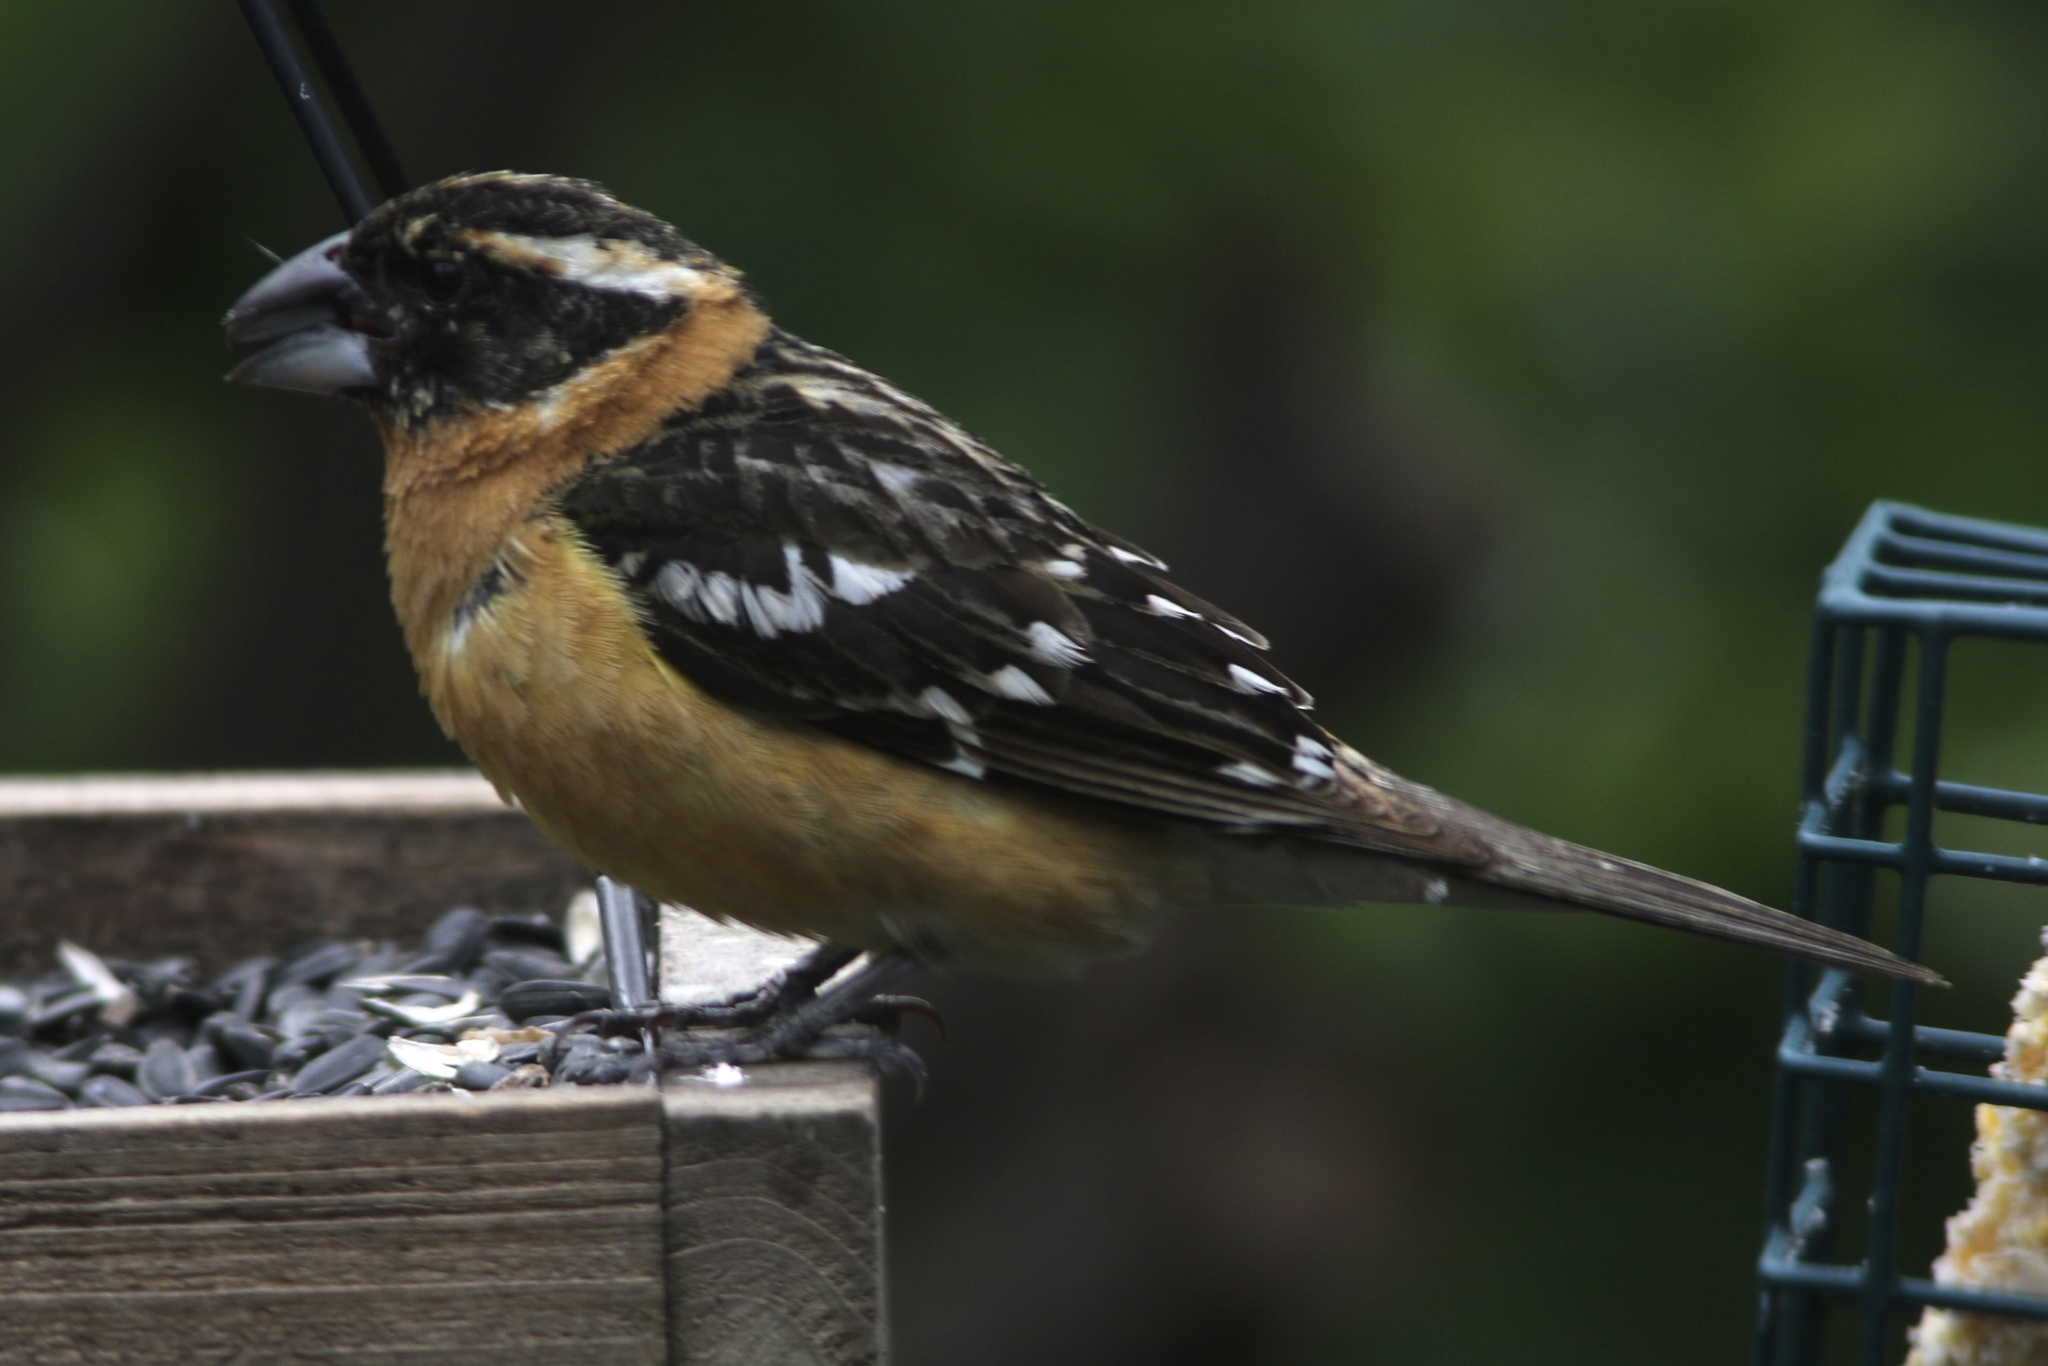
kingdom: Animalia
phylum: Chordata
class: Aves
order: Passeriformes
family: Cardinalidae
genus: Pheucticus
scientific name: Pheucticus melanocephalus
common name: Black-headed grosbeak
